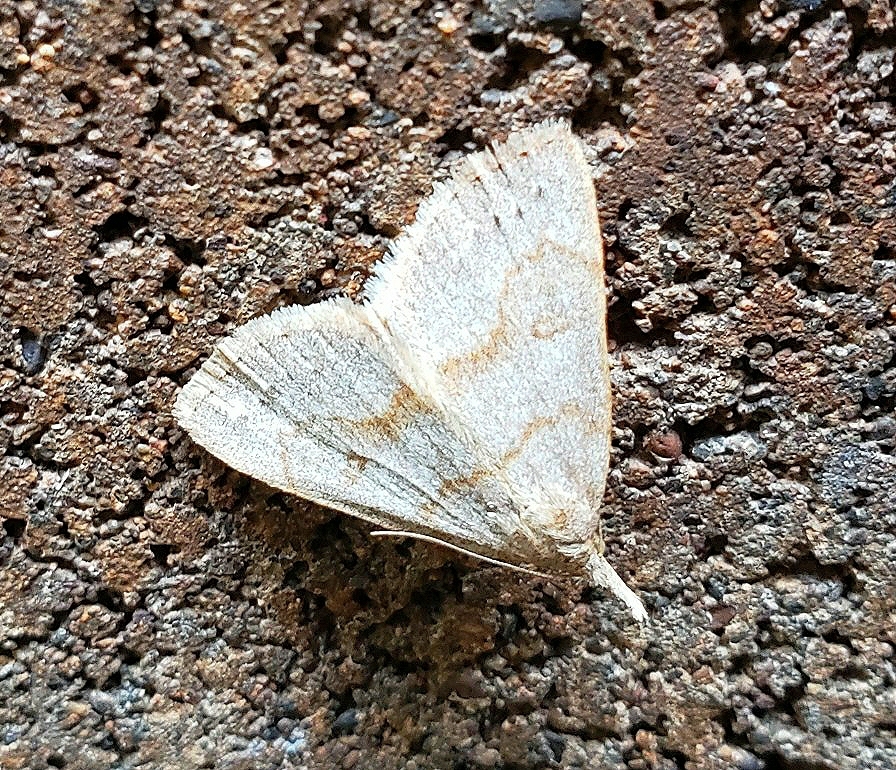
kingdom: Animalia
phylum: Arthropoda
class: Insecta
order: Lepidoptera
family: Erebidae
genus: Macrochilo
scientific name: Macrochilo morbidalis
